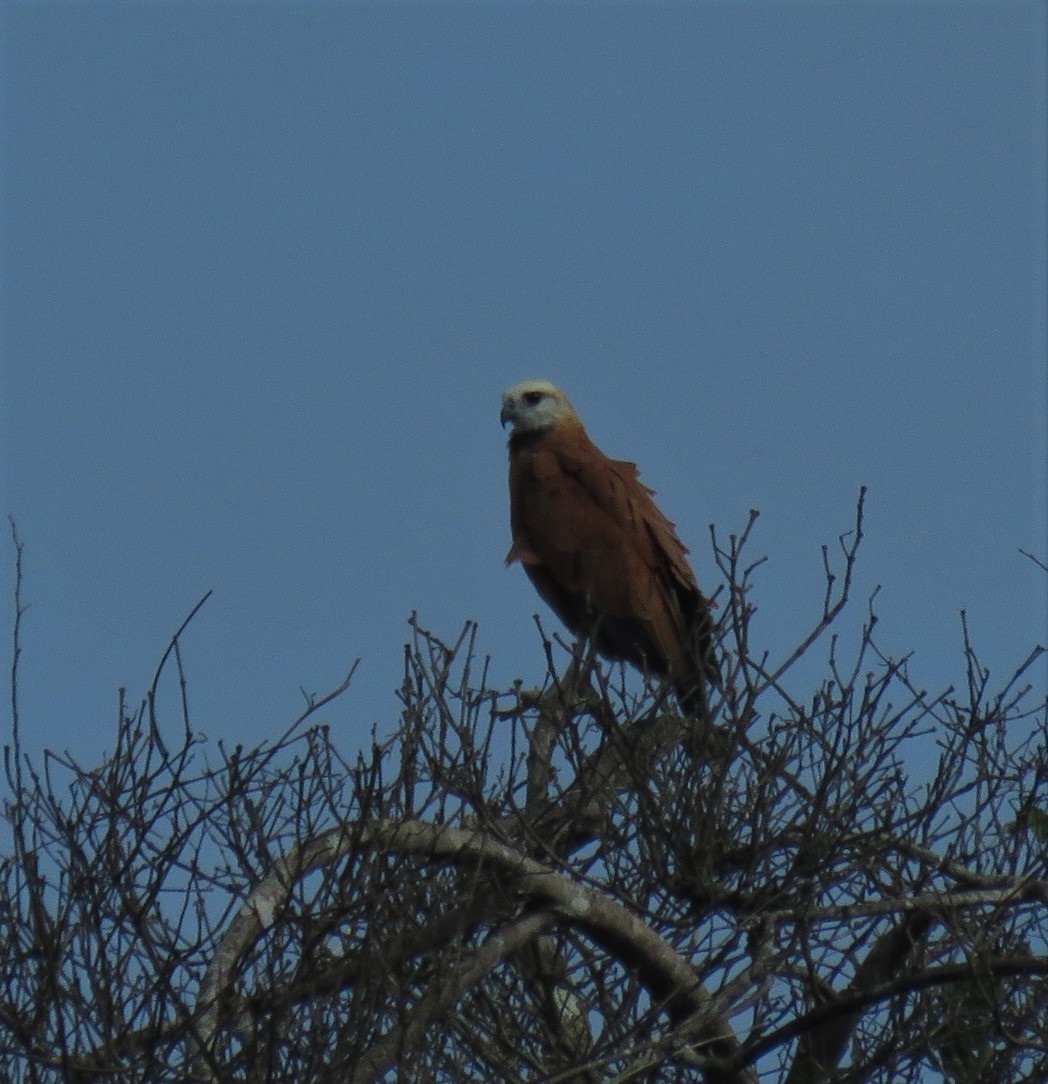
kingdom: Animalia
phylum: Chordata
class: Aves
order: Accipitriformes
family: Accipitridae
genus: Busarellus
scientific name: Busarellus nigricollis
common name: Black-collared hawk
